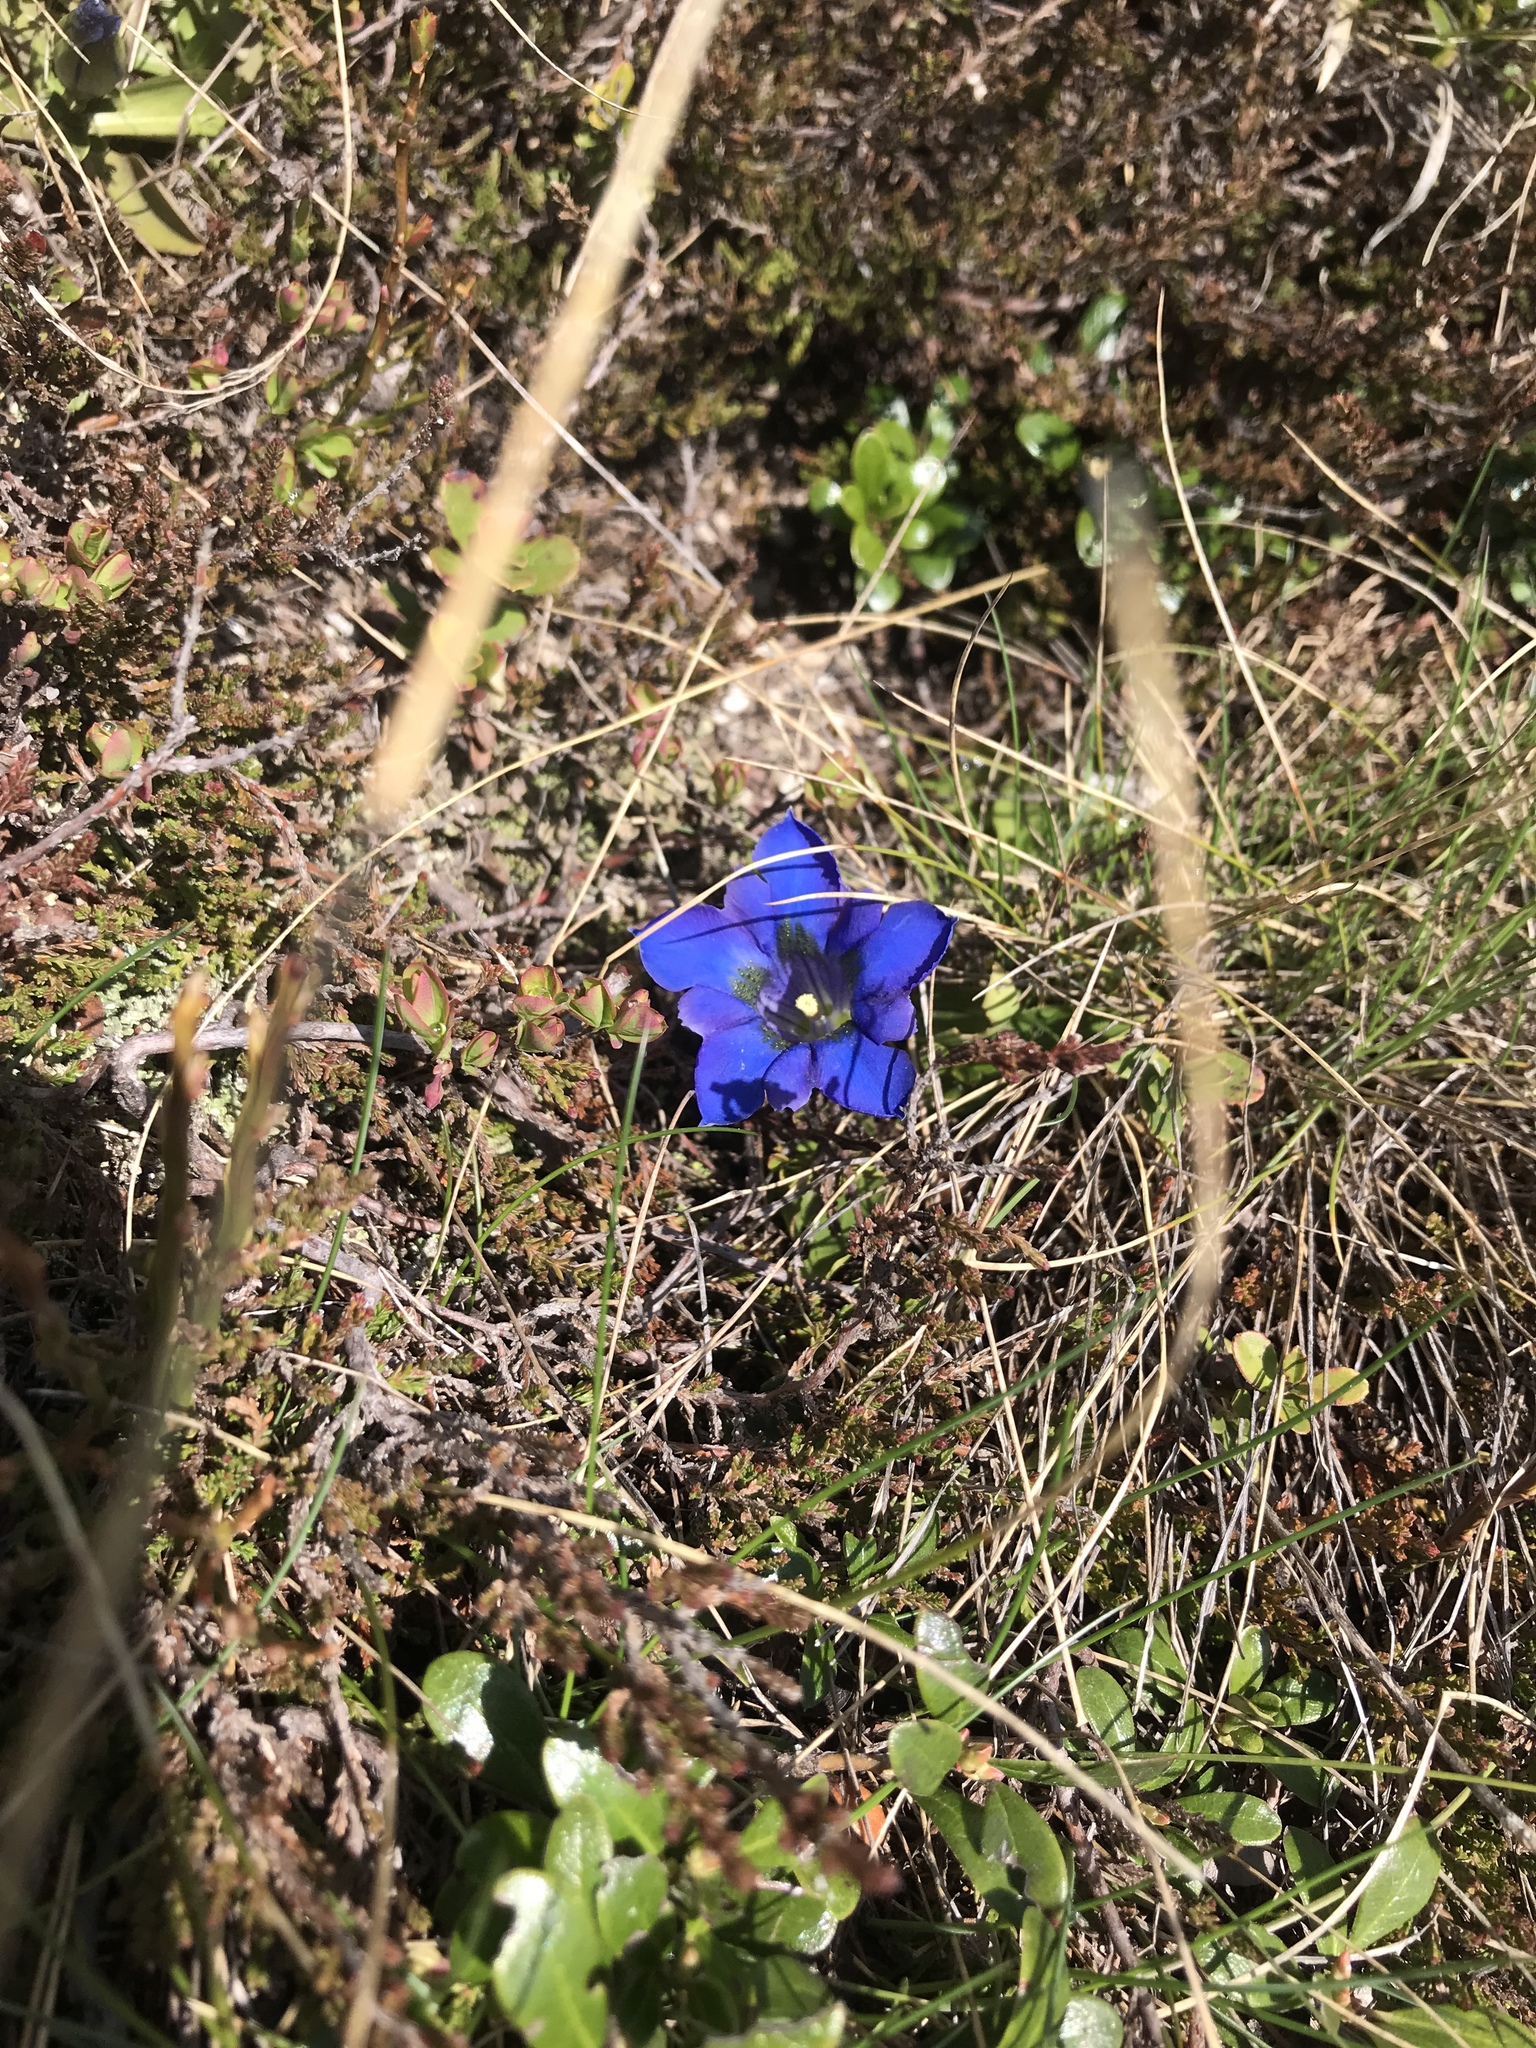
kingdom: Plantae
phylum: Tracheophyta
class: Magnoliopsida
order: Gentianales
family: Gentianaceae
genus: Gentiana
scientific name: Gentiana acaulis
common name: Trumpet gentian
